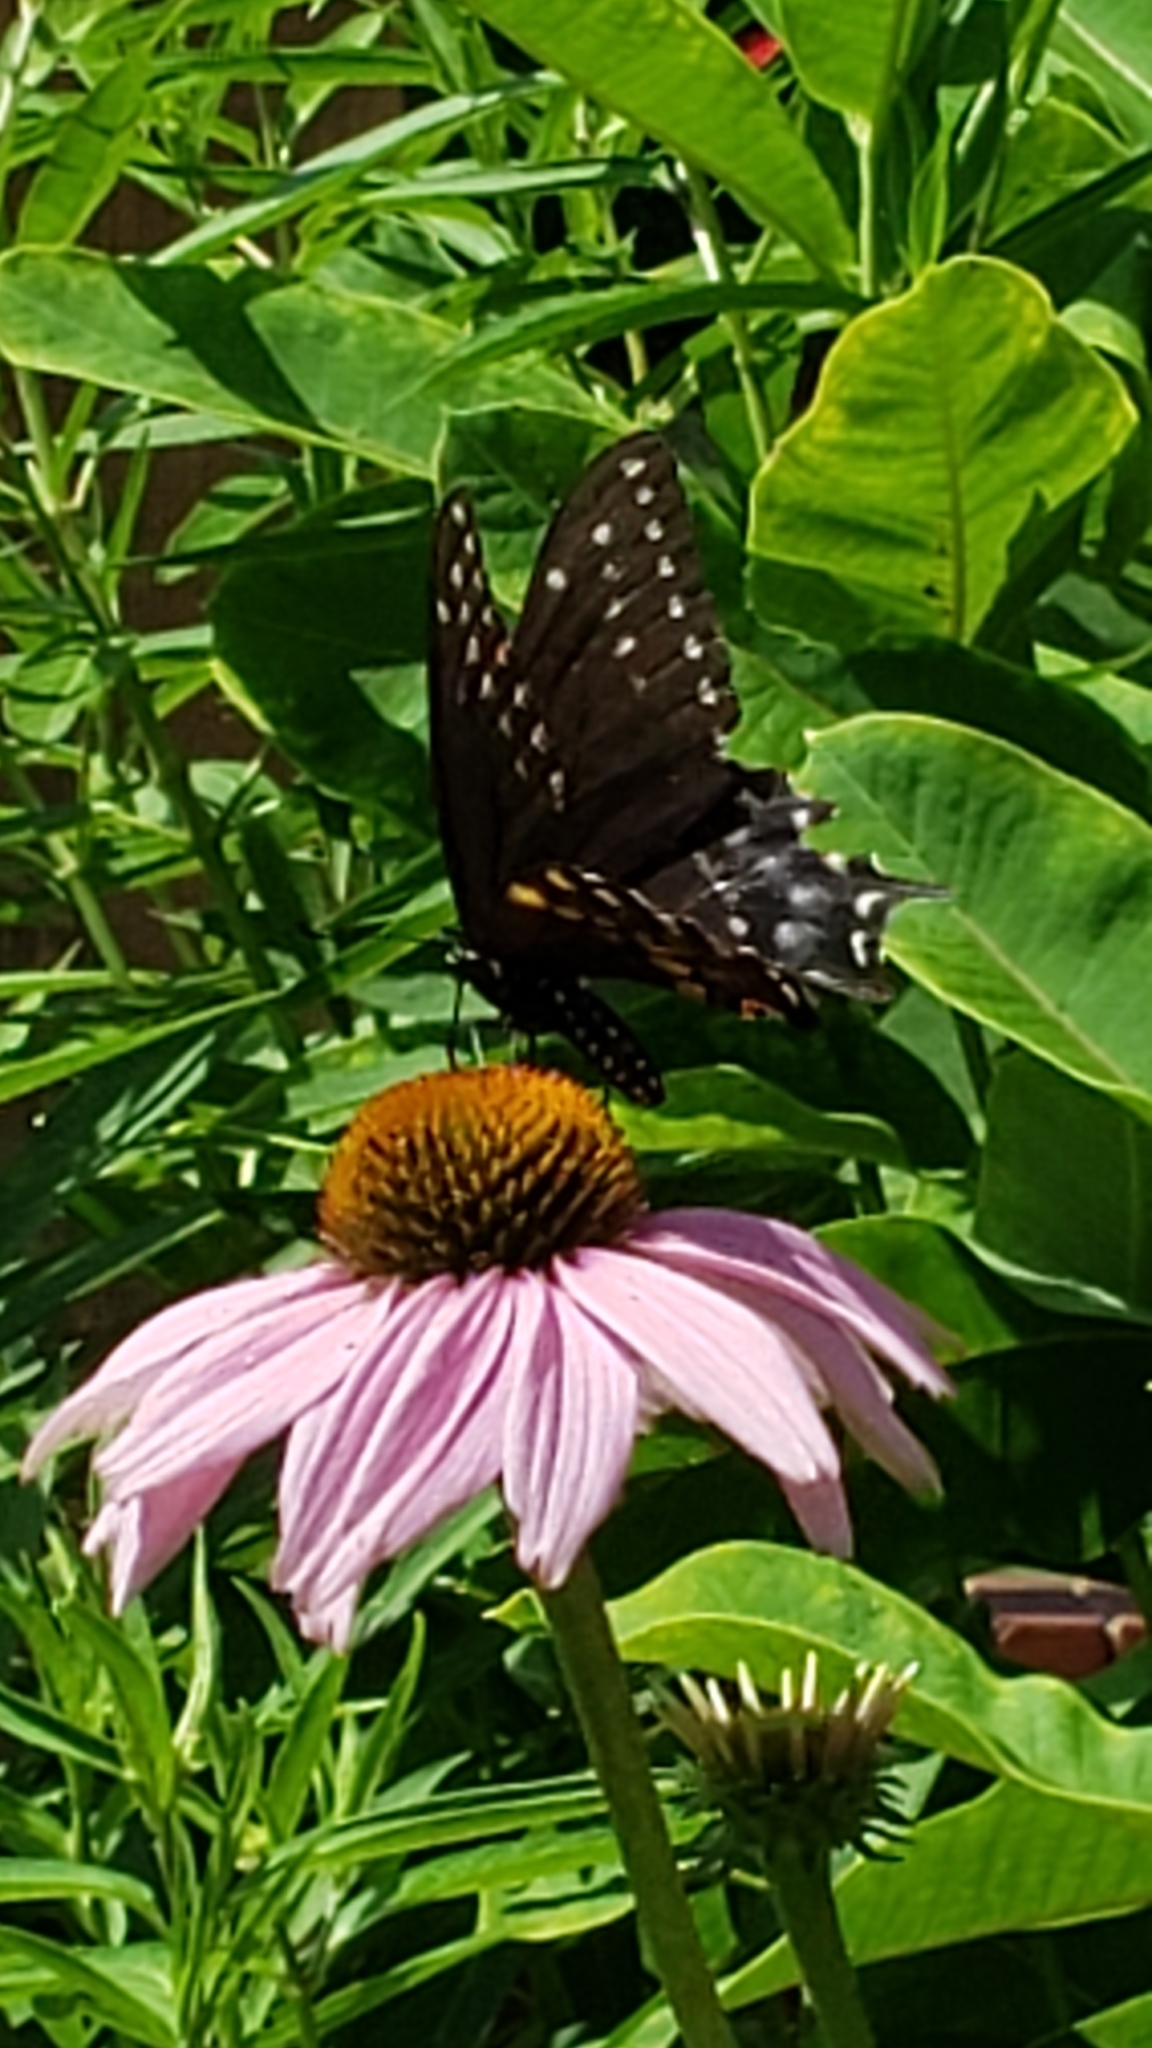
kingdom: Animalia
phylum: Arthropoda
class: Insecta
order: Lepidoptera
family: Papilionidae
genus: Papilio
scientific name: Papilio polyxenes
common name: Black swallowtail
